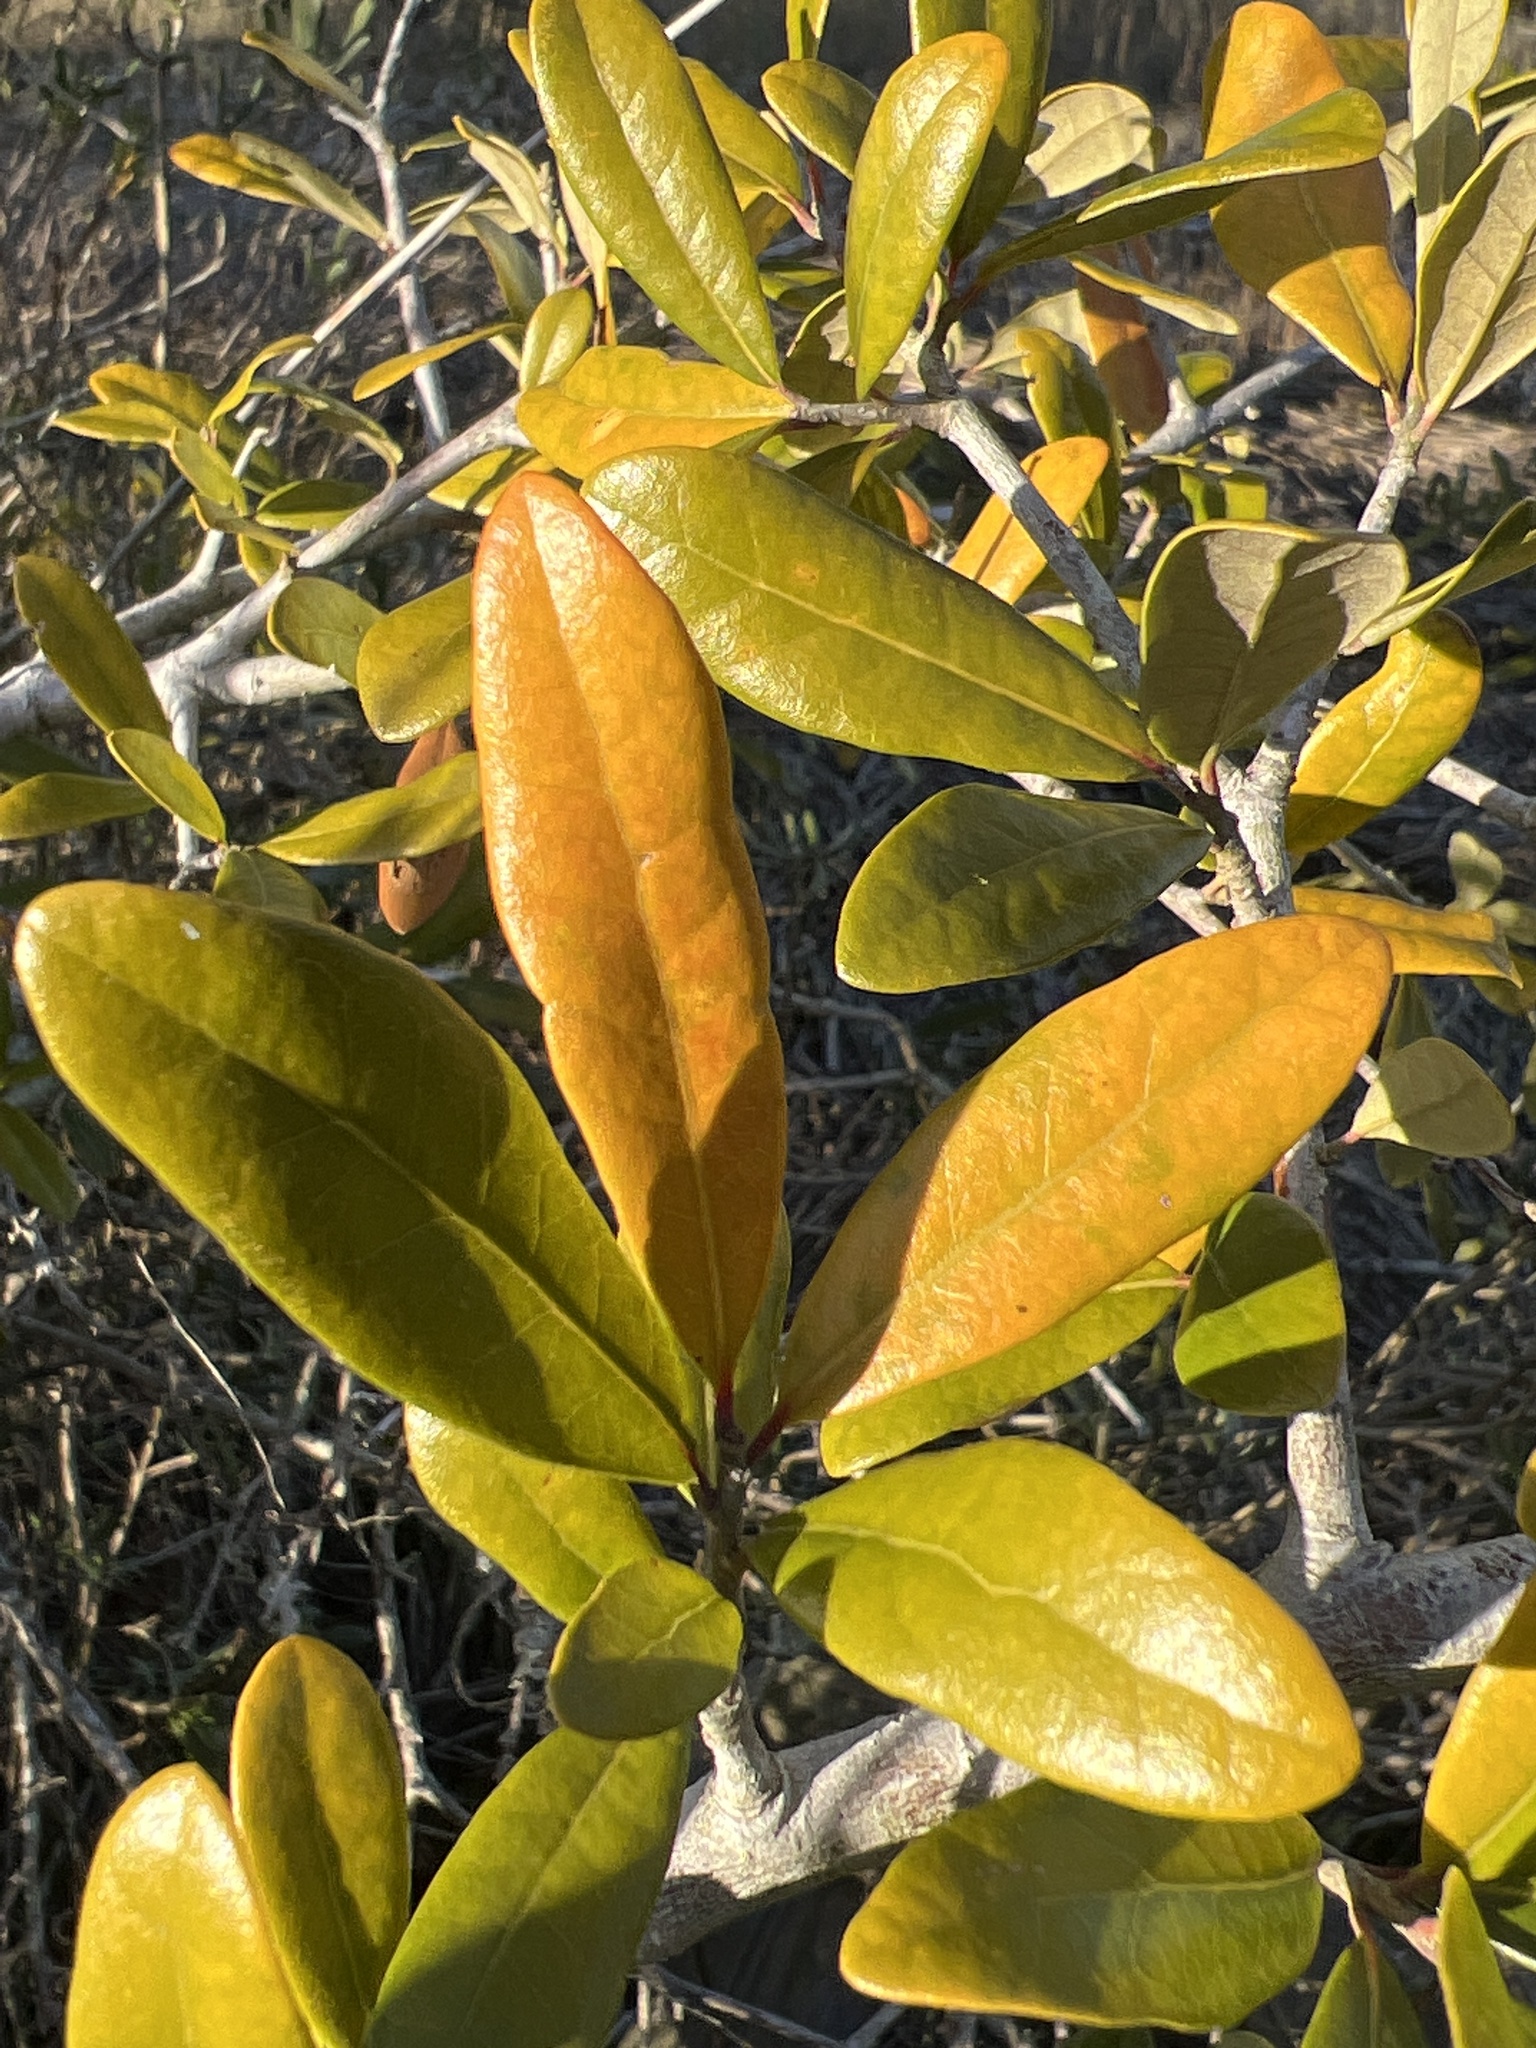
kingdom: Plantae
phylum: Tracheophyta
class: Magnoliopsida
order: Fagales
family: Fagaceae
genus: Quercus
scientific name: Quercus virginiana
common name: Southern live oak
